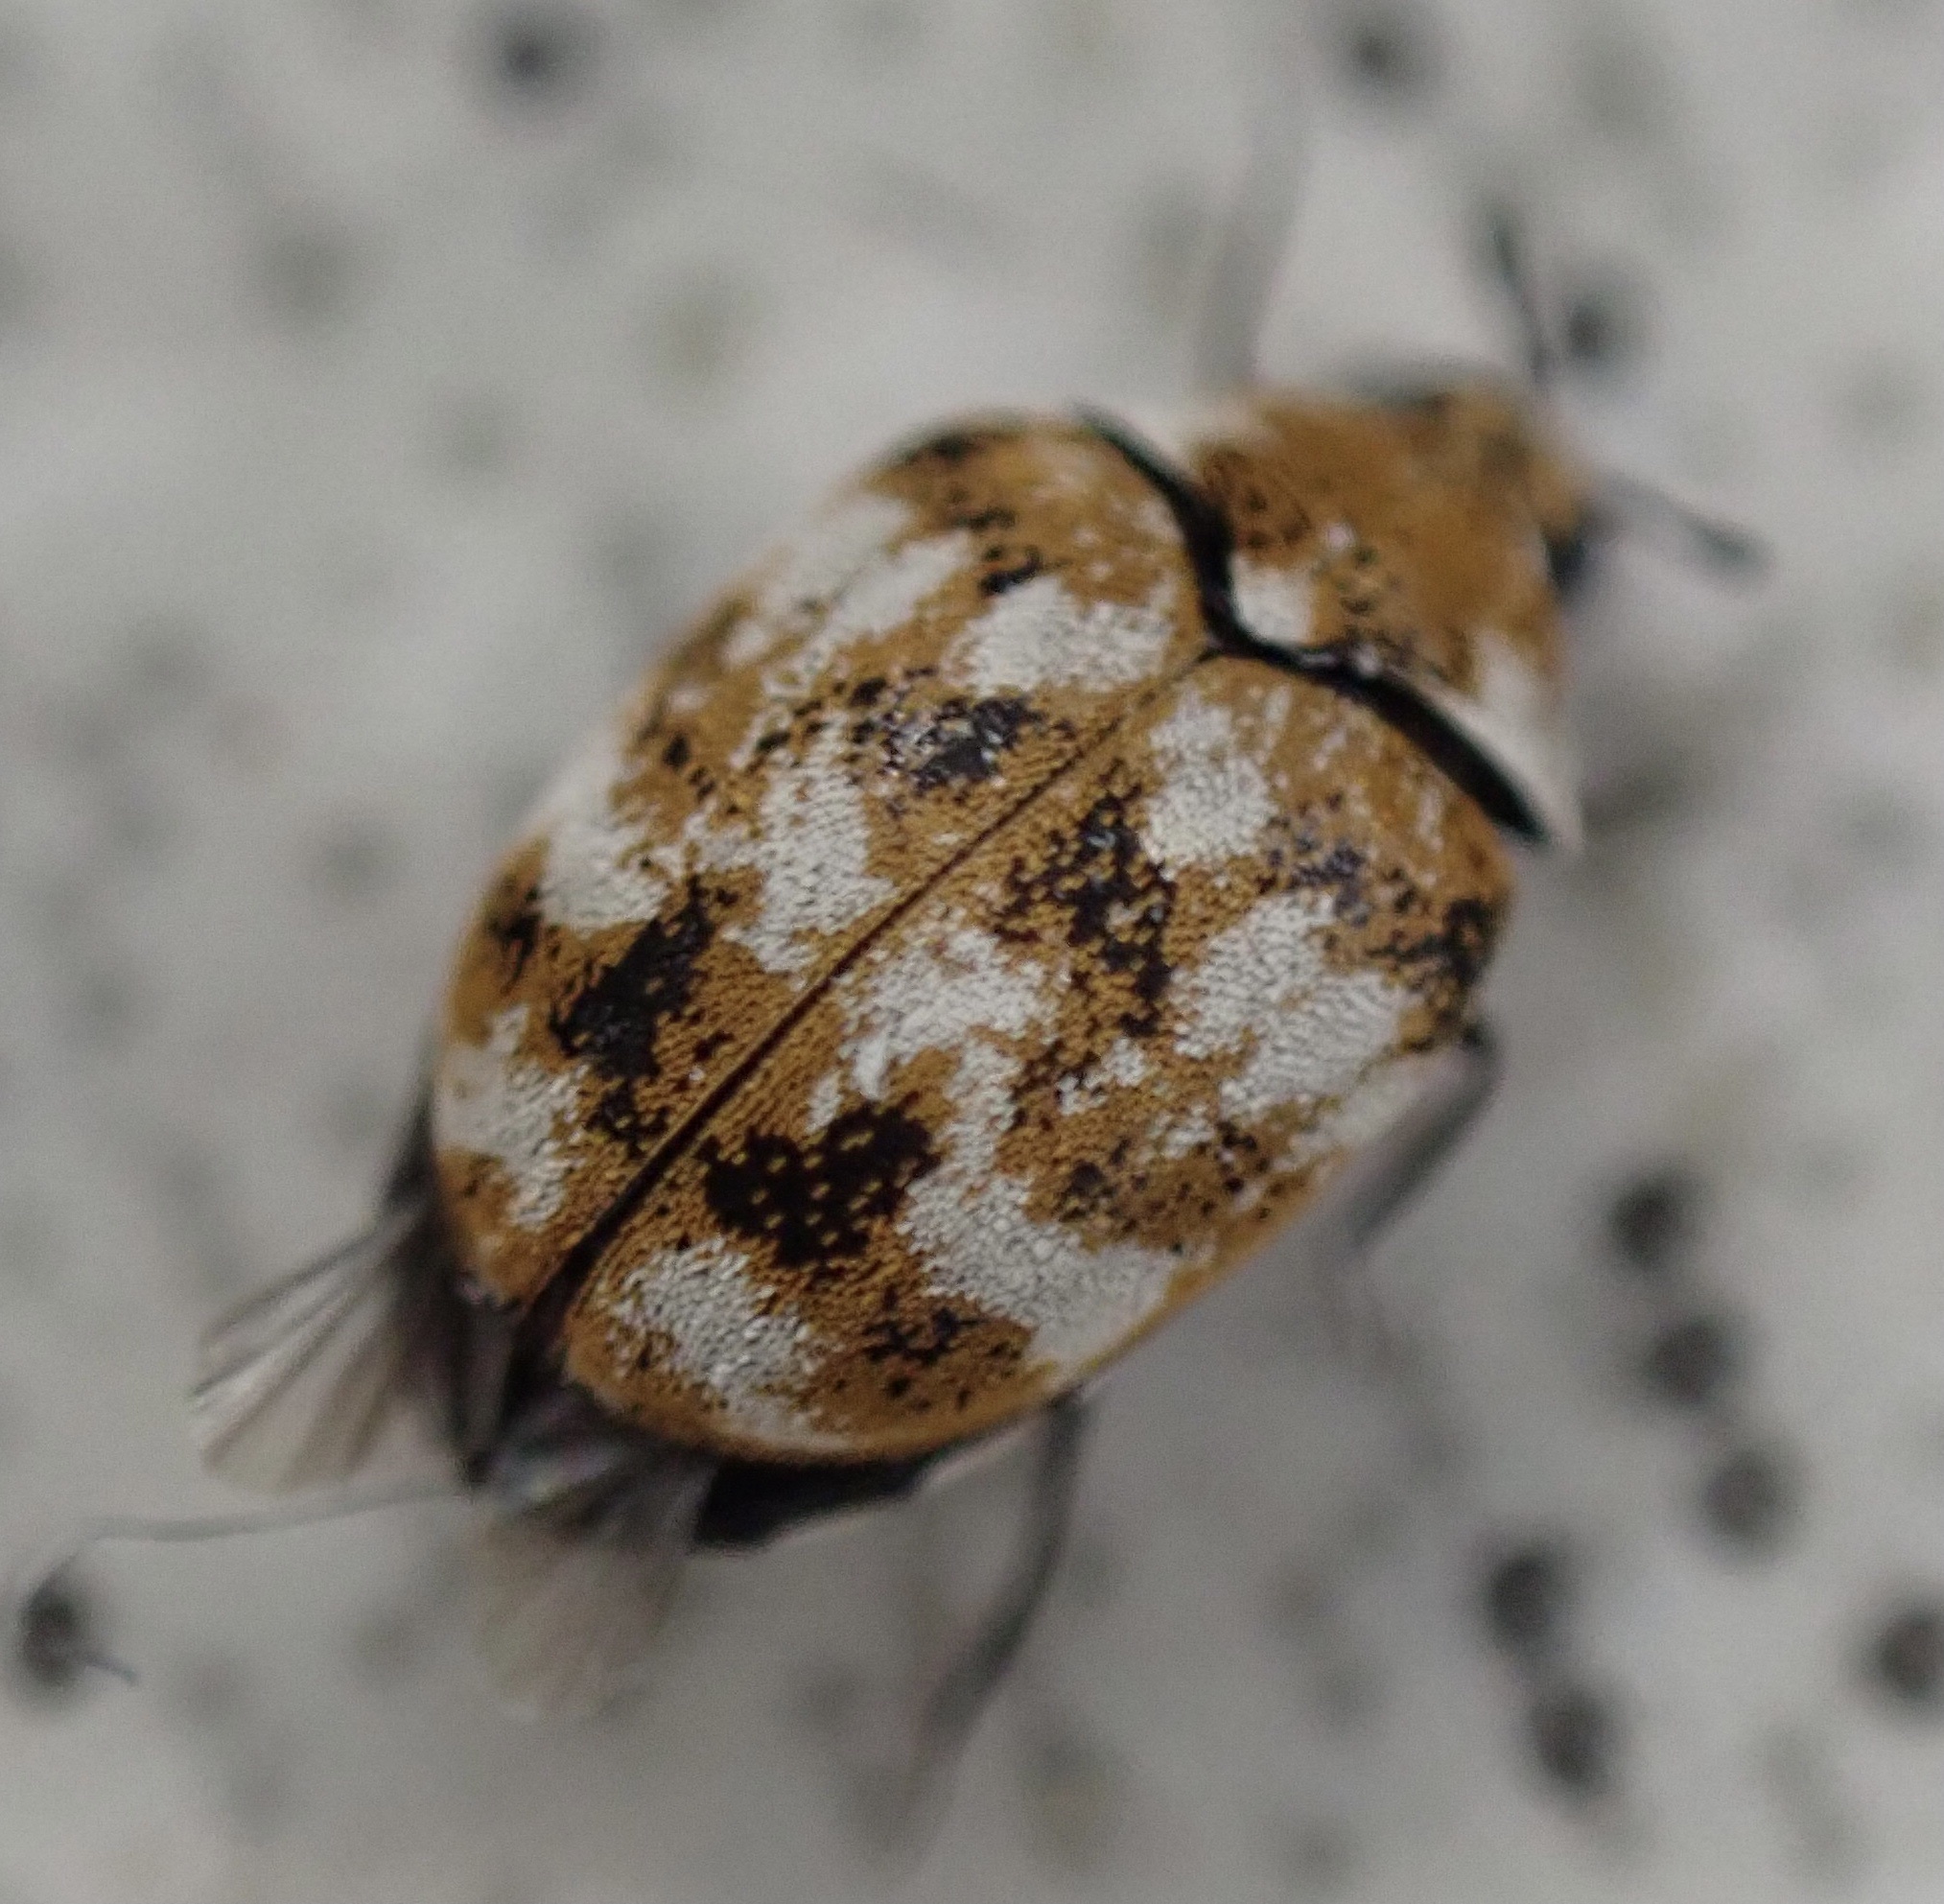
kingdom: Animalia
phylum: Arthropoda
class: Insecta
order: Coleoptera
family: Dermestidae
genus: Anthrenus
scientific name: Anthrenus verbasci
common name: Varied carpet beetle
